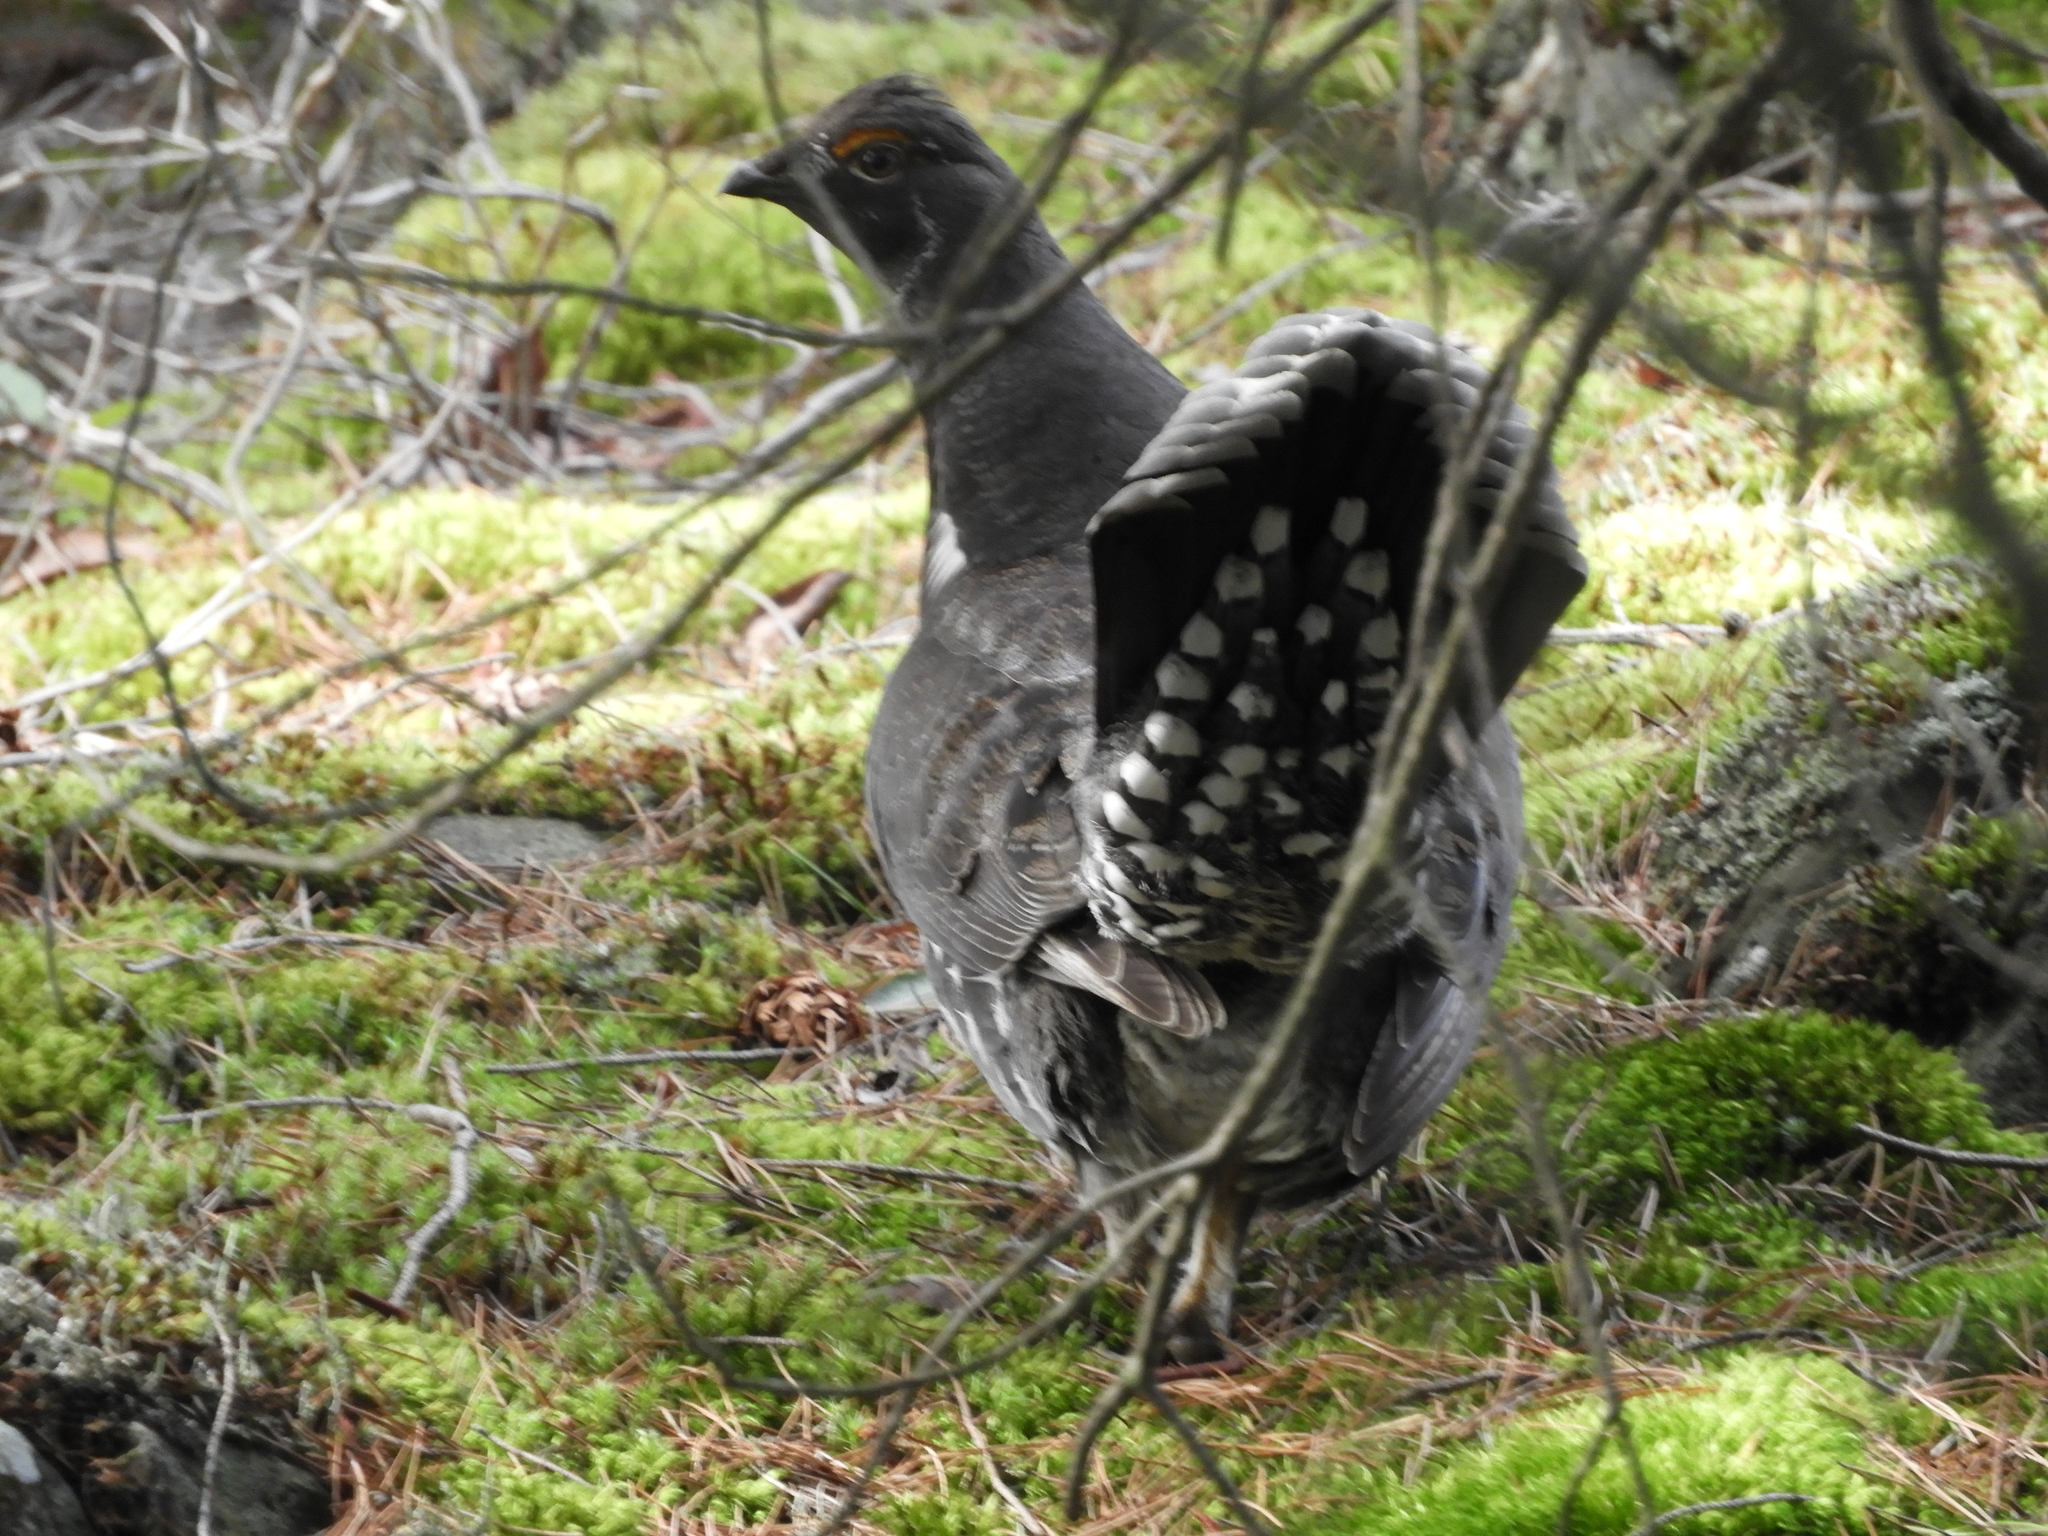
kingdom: Animalia
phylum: Chordata
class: Aves
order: Galliformes
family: Phasianidae
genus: Dendragapus
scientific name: Dendragapus fuliginosus
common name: Sooty grouse
